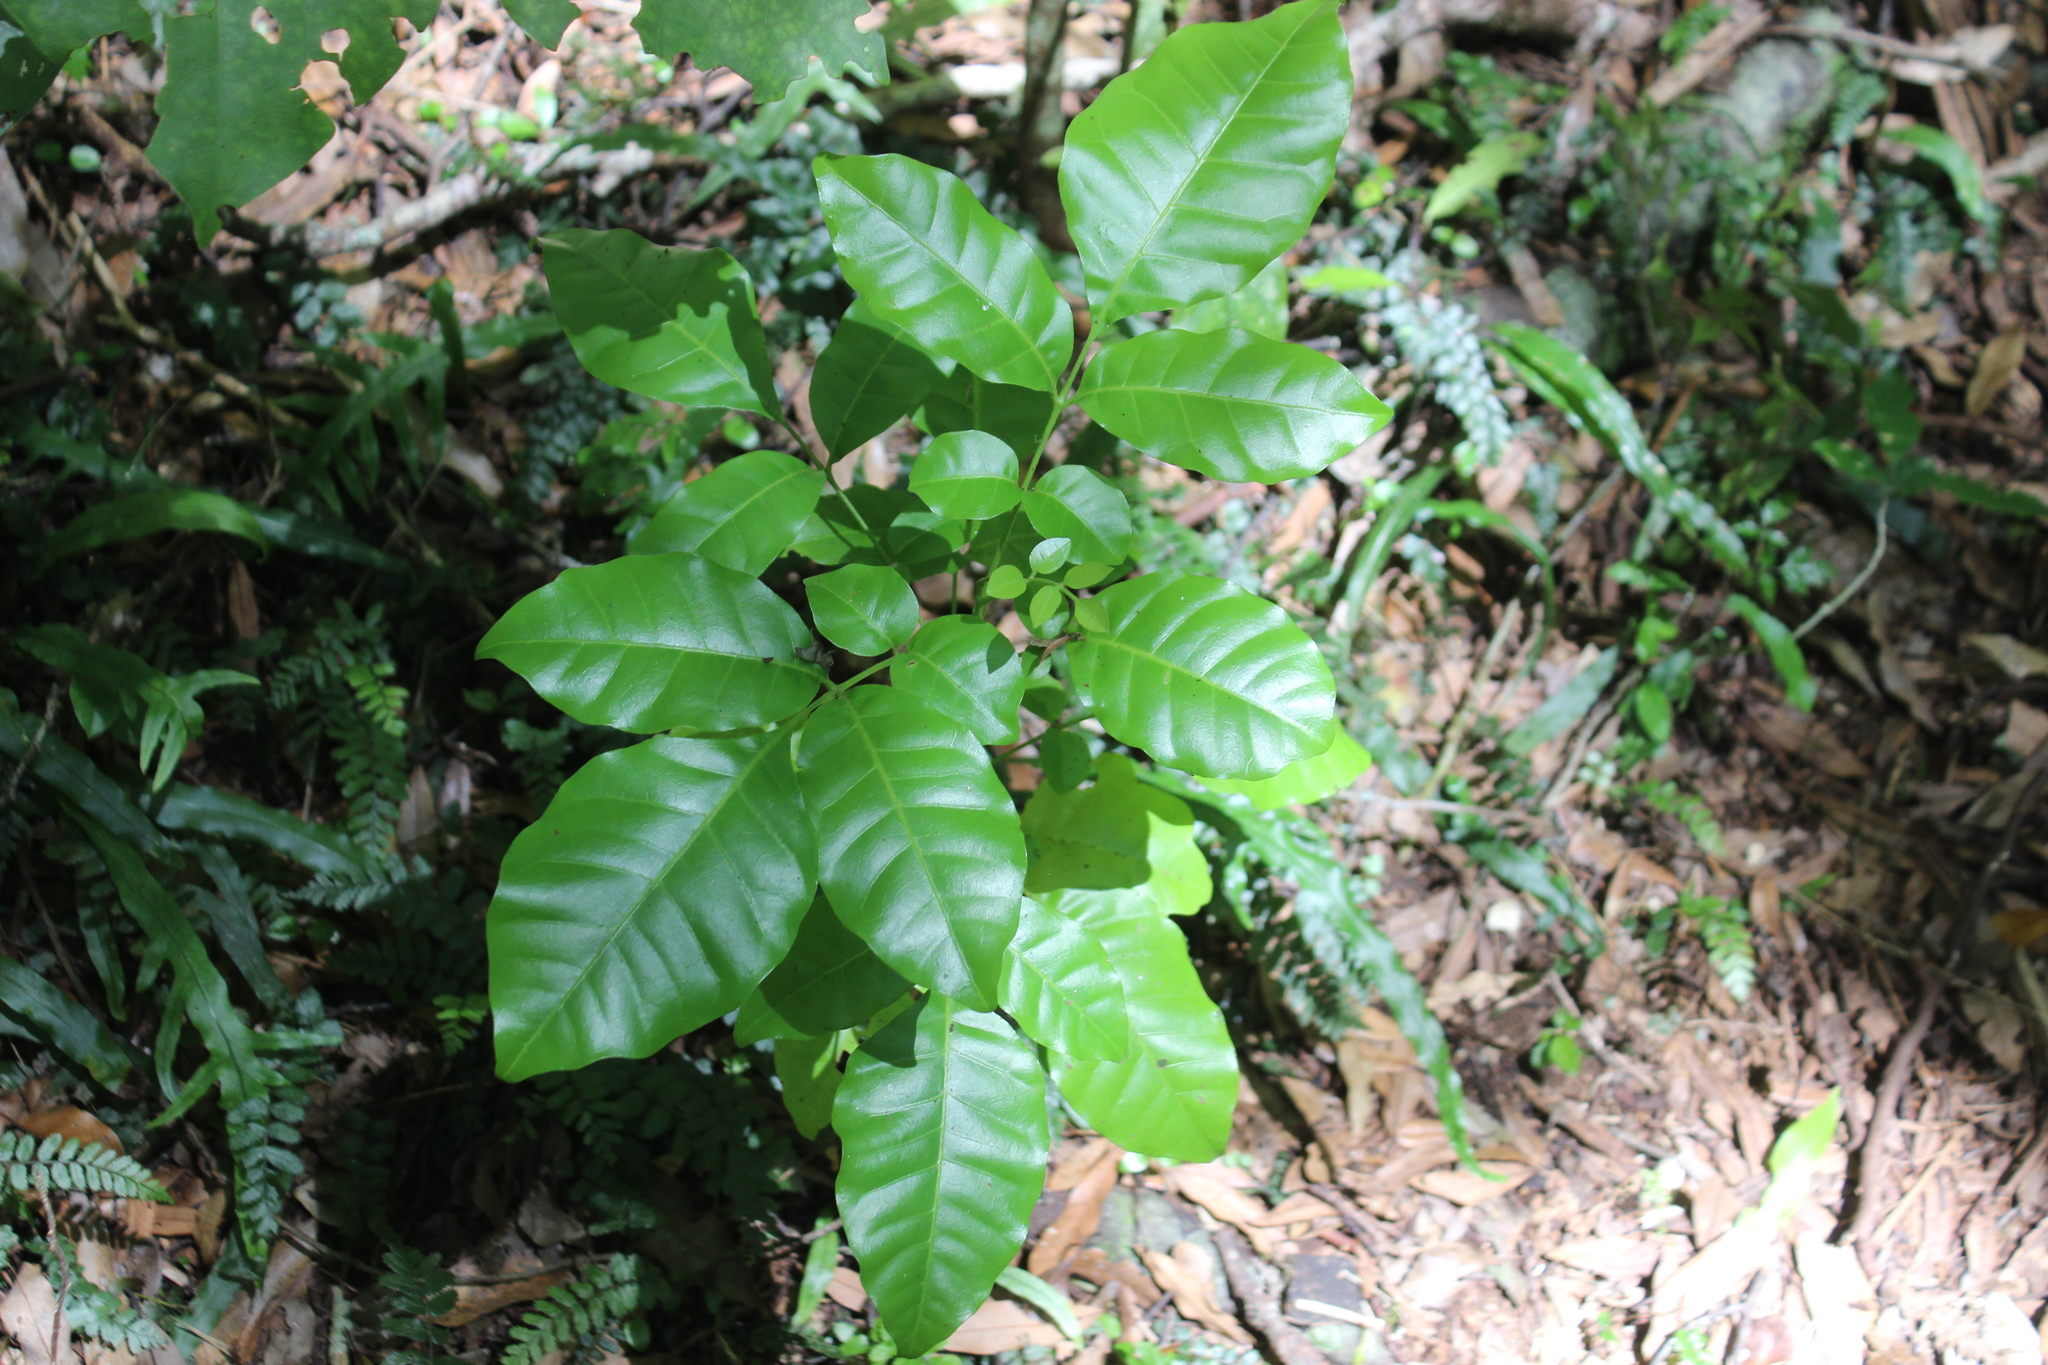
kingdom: Plantae
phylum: Tracheophyta
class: Magnoliopsida
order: Sapindales
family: Meliaceae
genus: Didymocheton
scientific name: Didymocheton spectabilis
